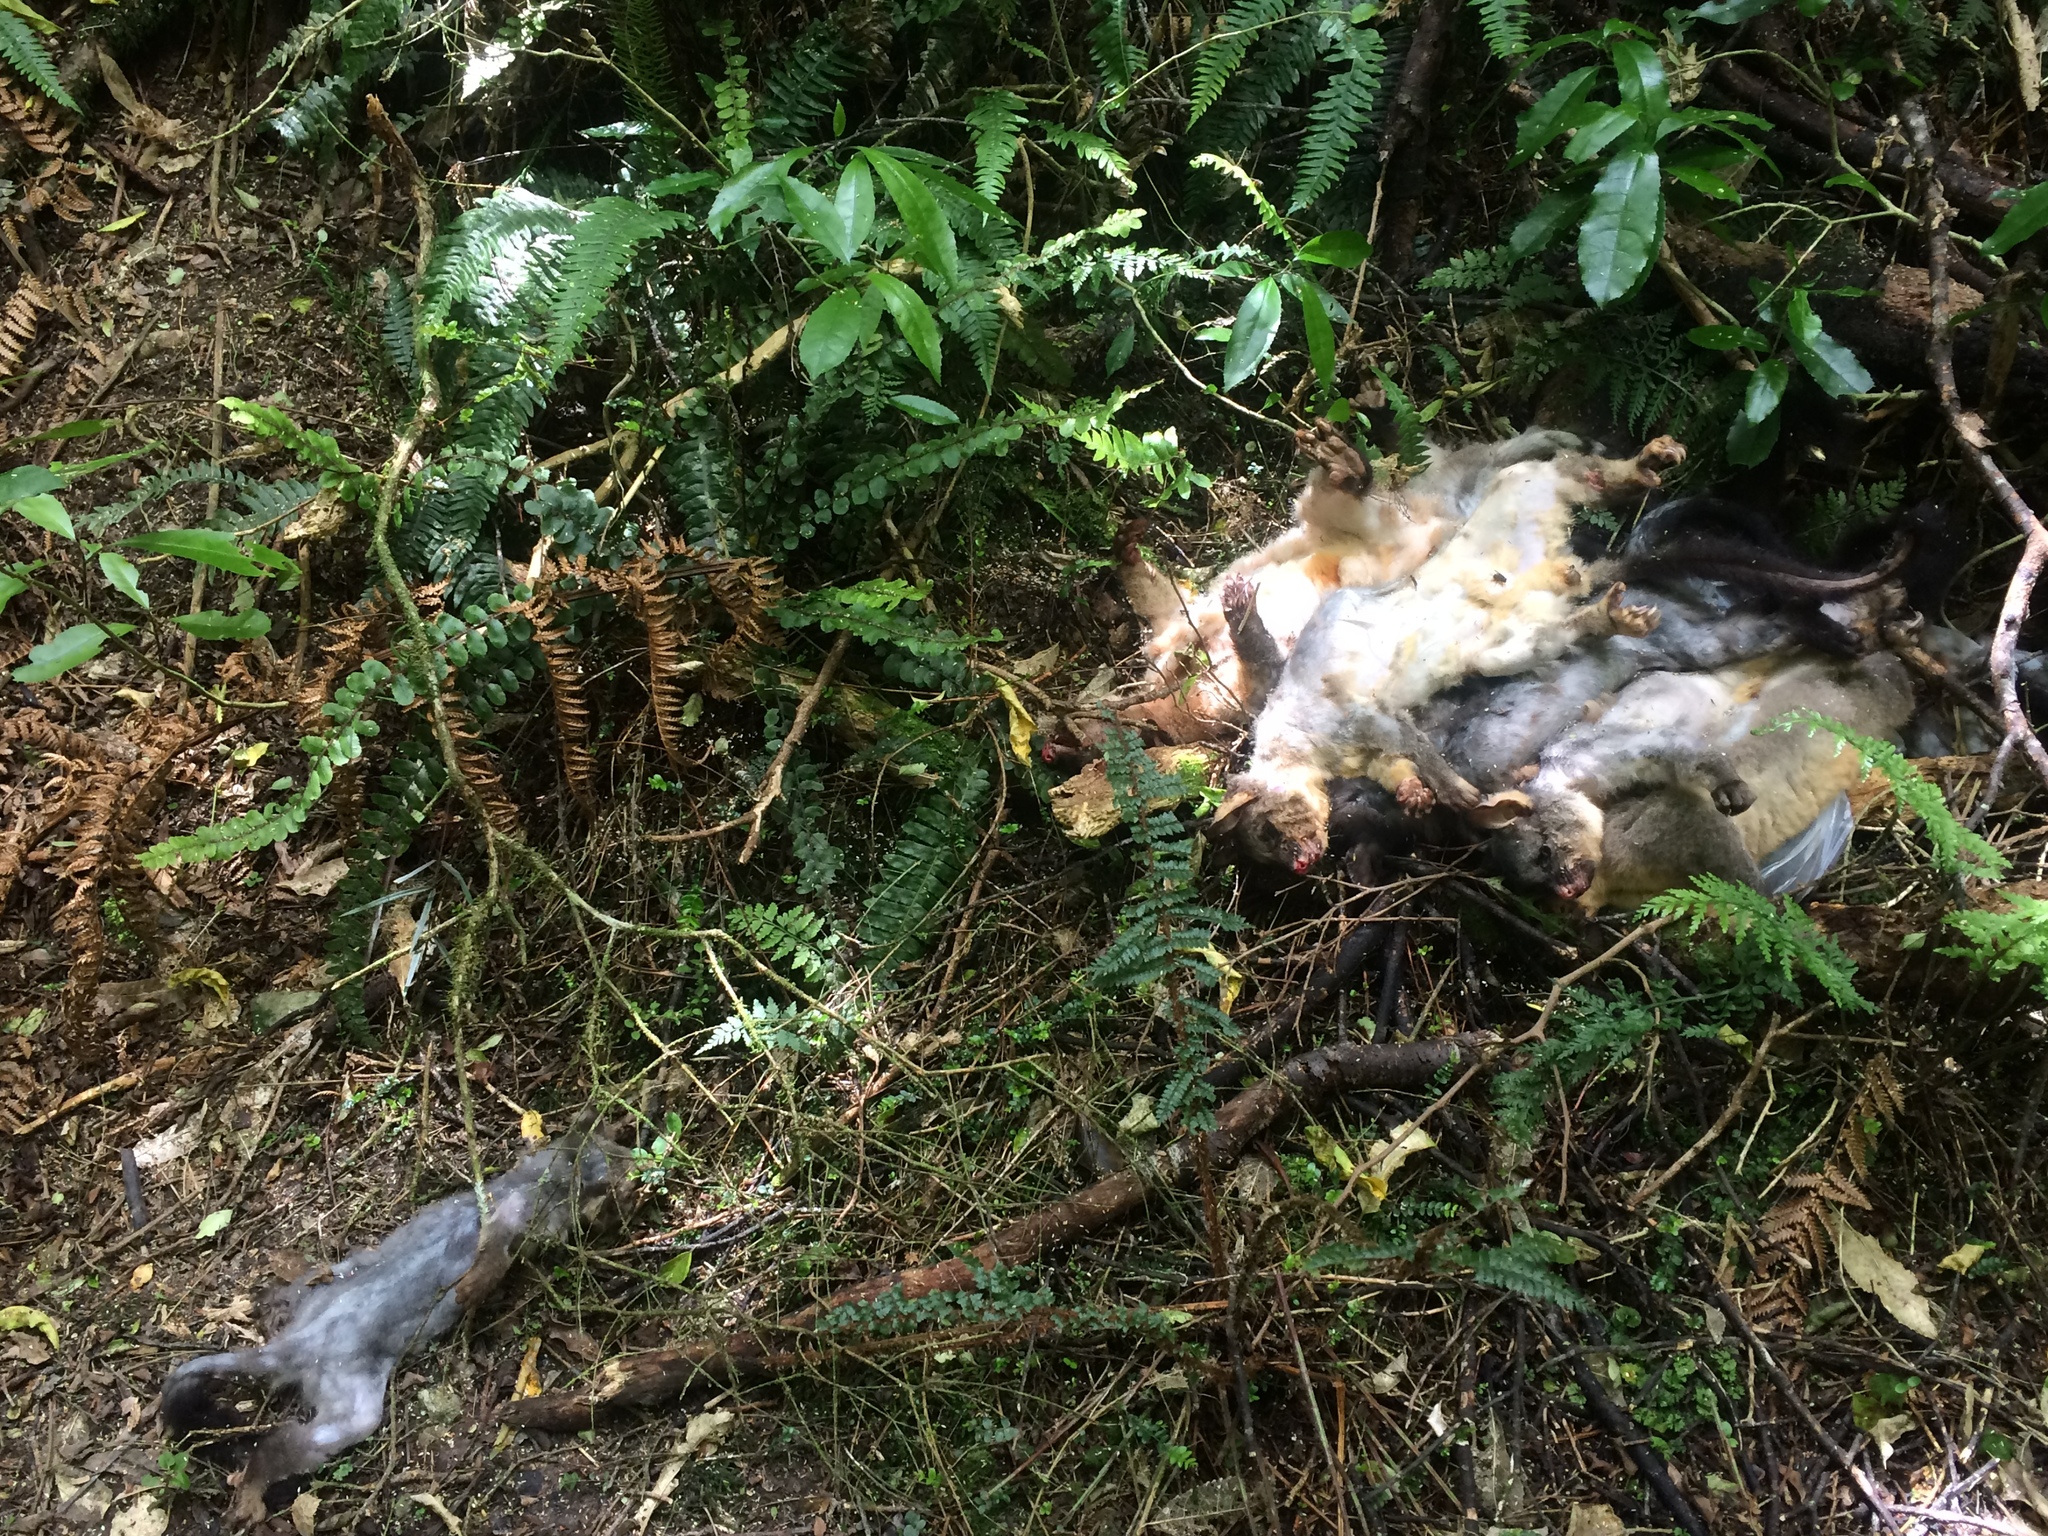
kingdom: Animalia
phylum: Chordata
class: Mammalia
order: Diprotodontia
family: Phalangeridae
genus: Trichosurus
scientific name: Trichosurus vulpecula
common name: Common brushtail
